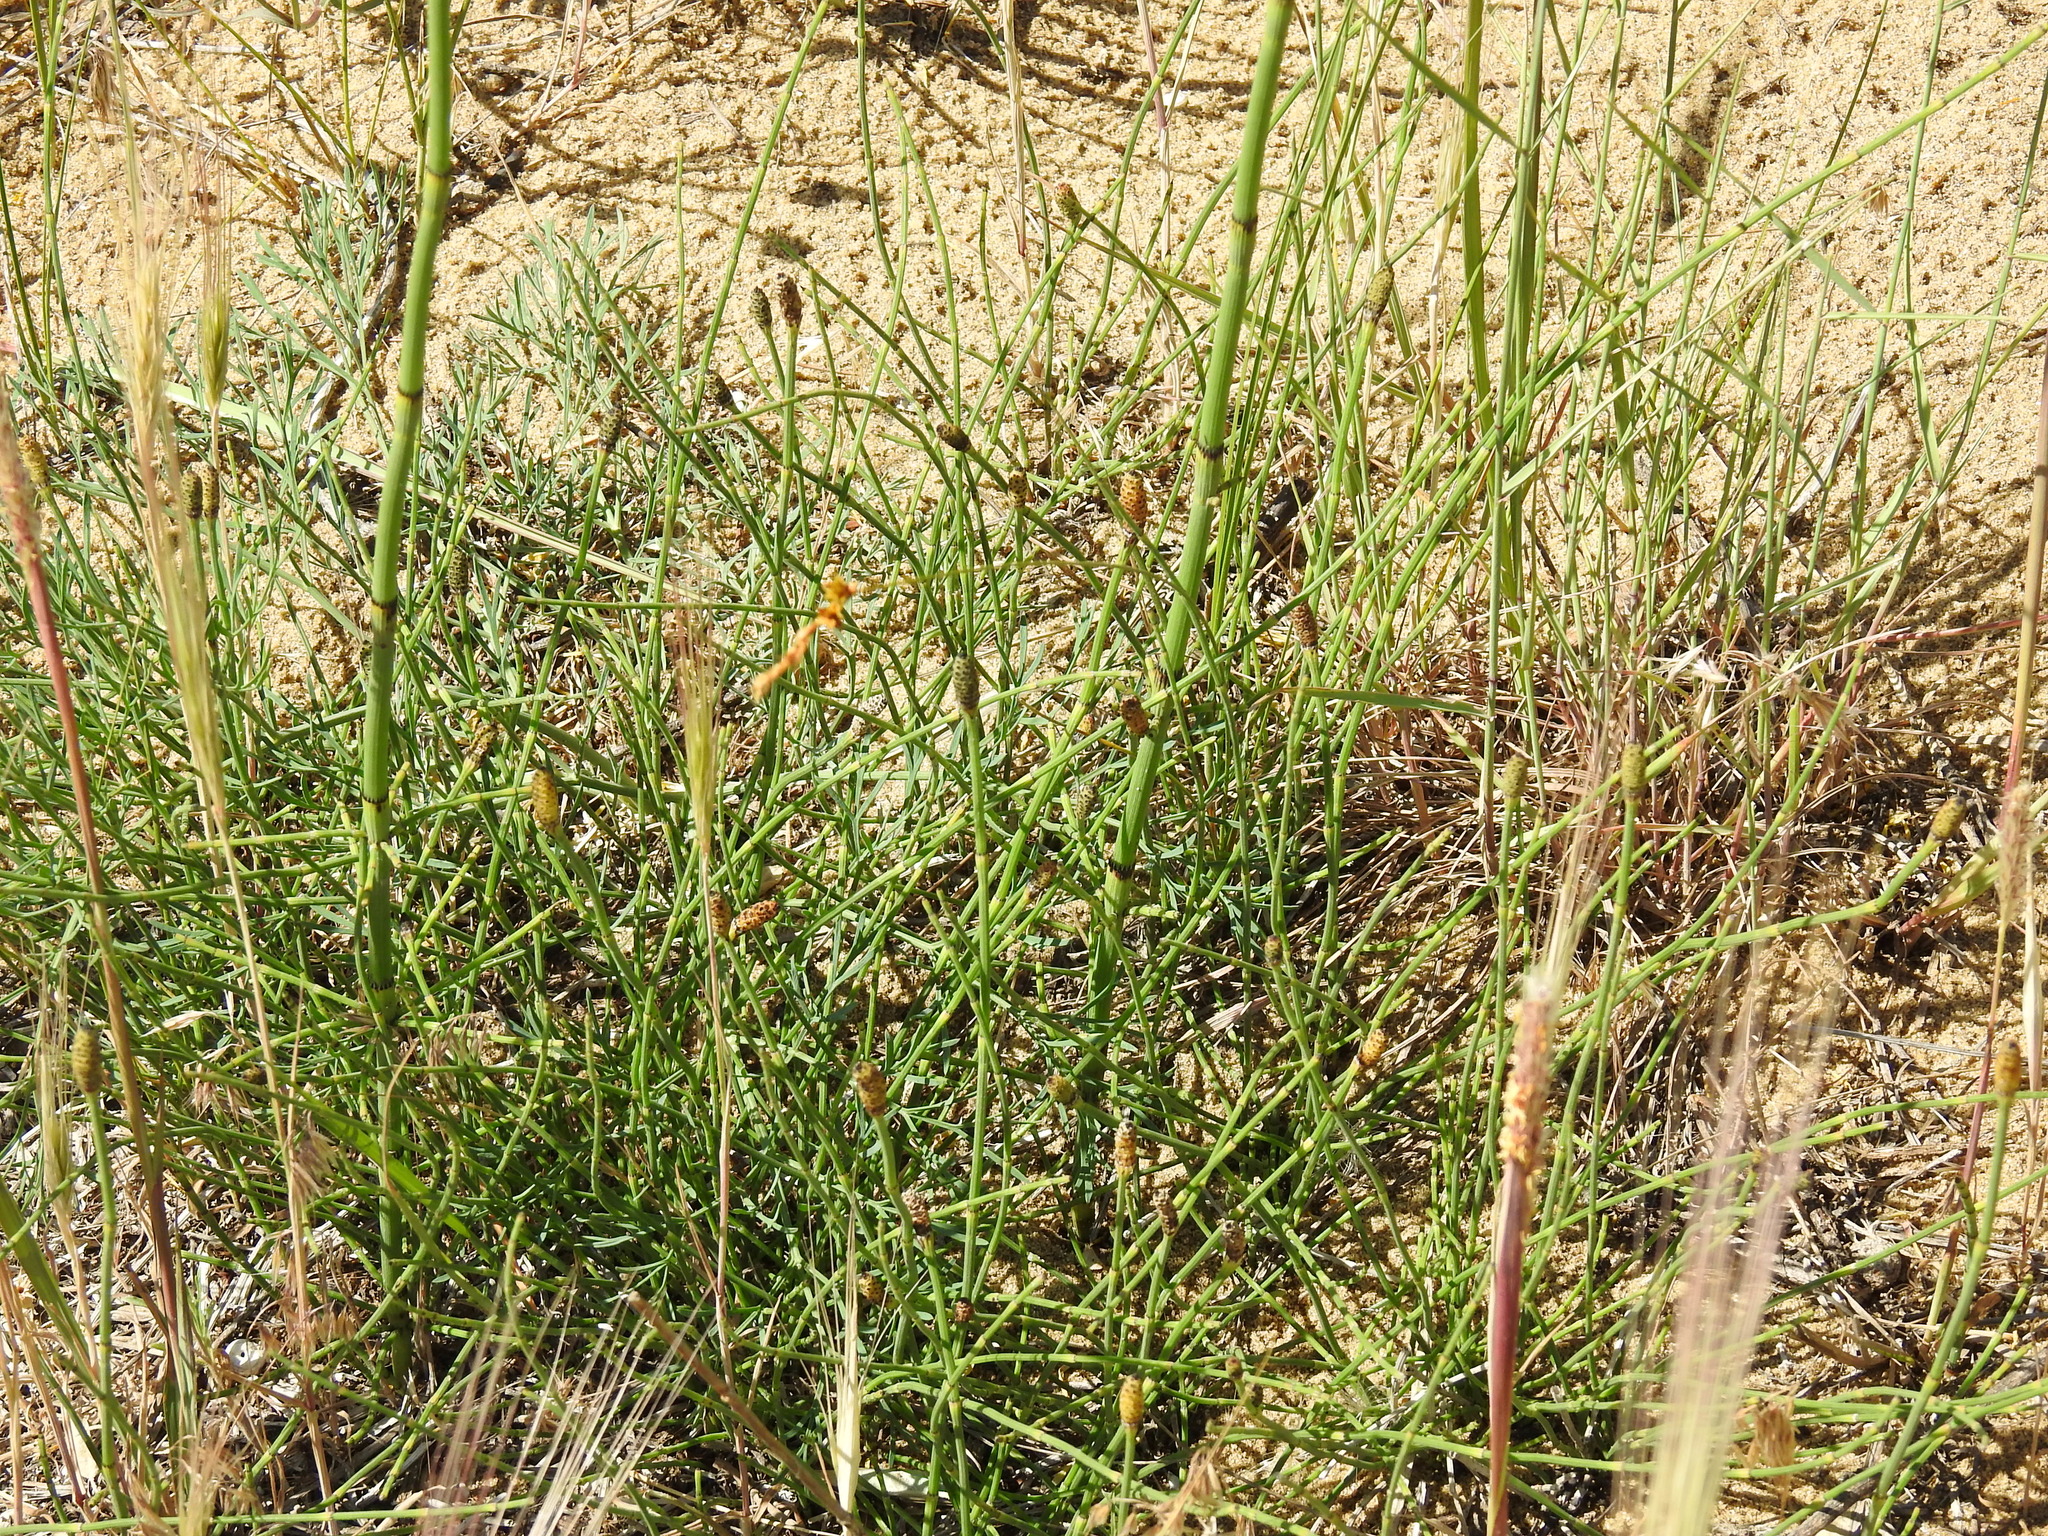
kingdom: Plantae
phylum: Tracheophyta
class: Polypodiopsida
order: Equisetales
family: Equisetaceae
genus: Equisetum
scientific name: Equisetum ramosissimum
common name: Branched horsetail
